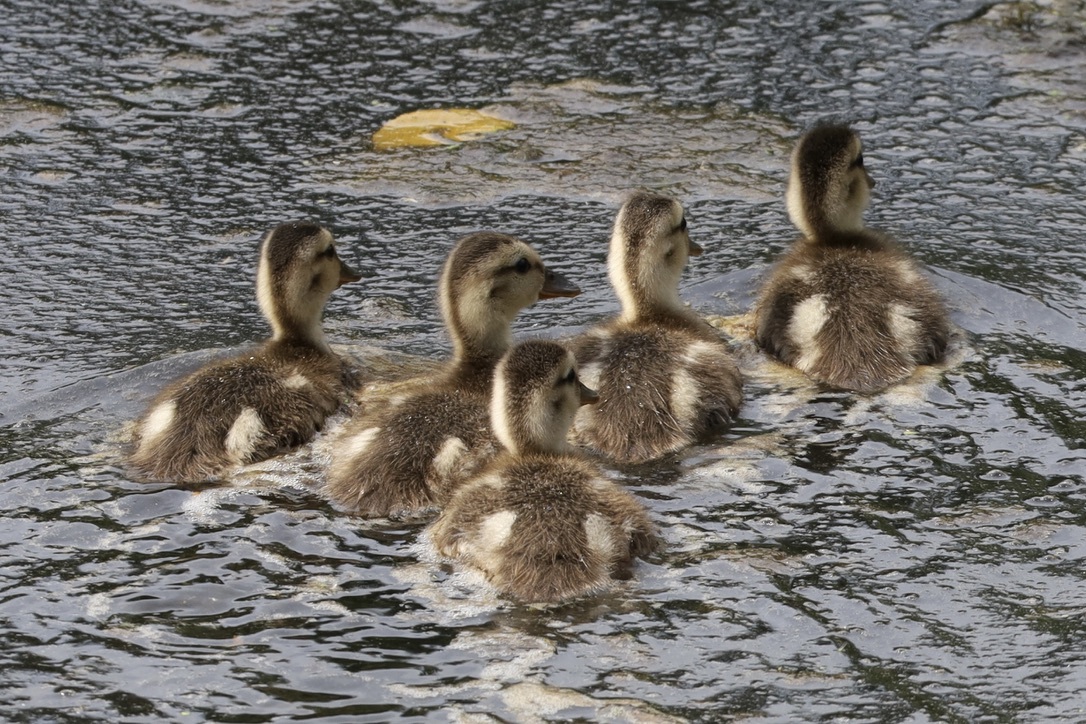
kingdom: Animalia
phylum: Chordata
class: Aves
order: Anseriformes
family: Anatidae
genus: Anas
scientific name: Anas platyrhynchos
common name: Mallard
